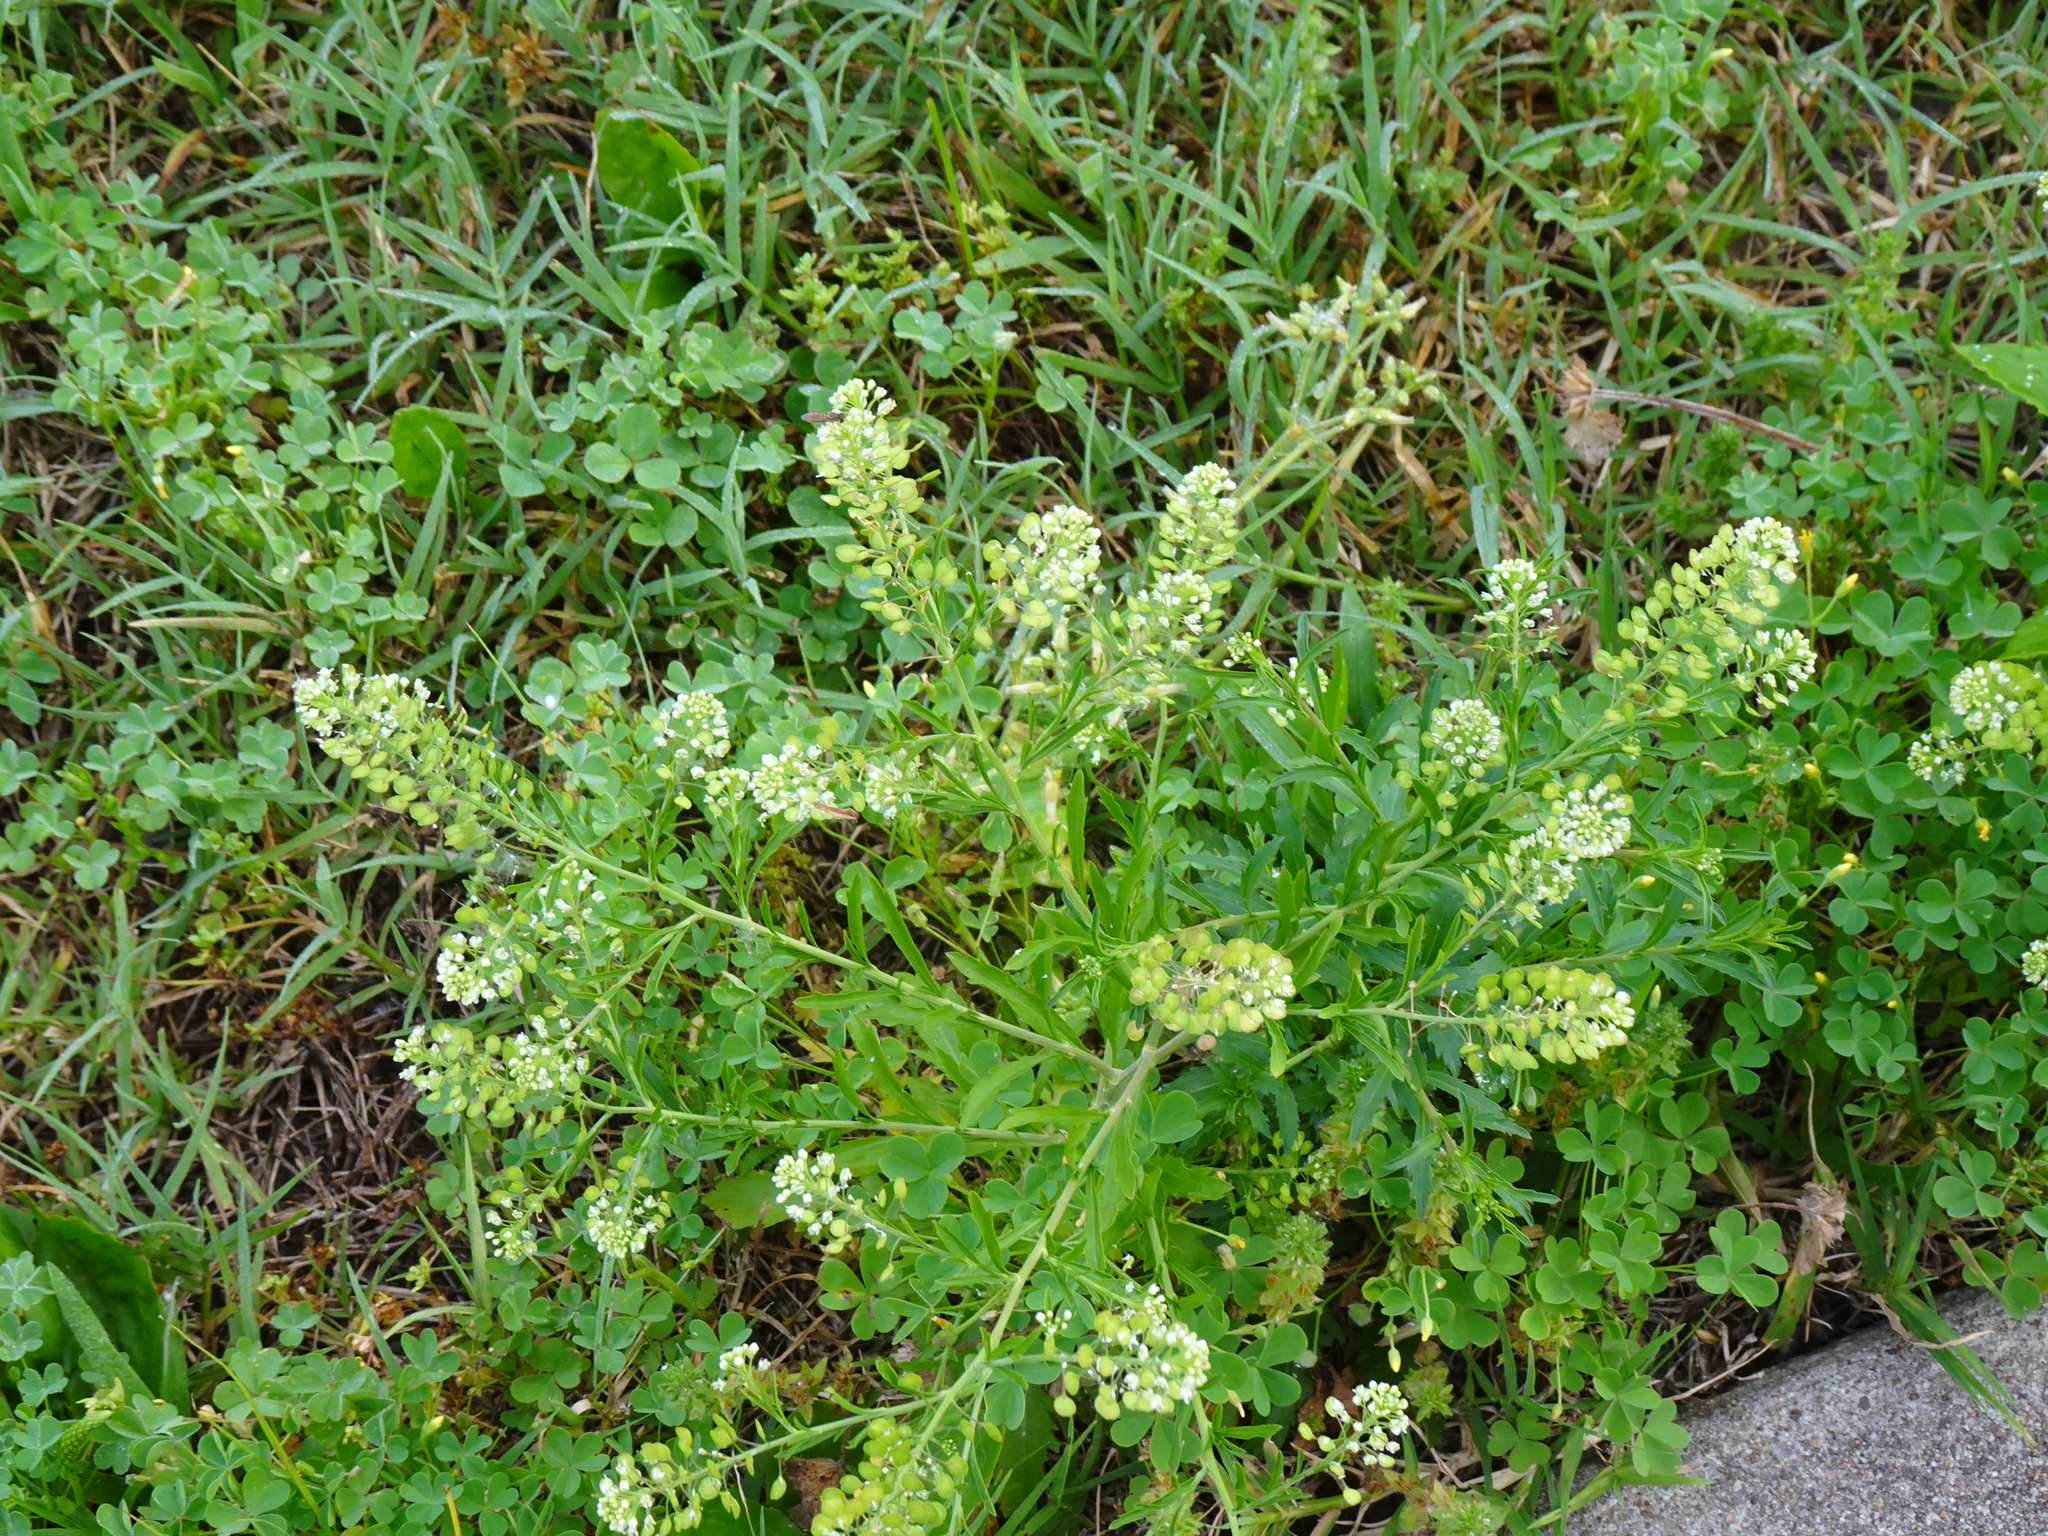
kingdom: Plantae
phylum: Tracheophyta
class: Magnoliopsida
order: Brassicales
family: Brassicaceae
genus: Lepidium
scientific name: Lepidium virginicum
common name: Least pepperwort
